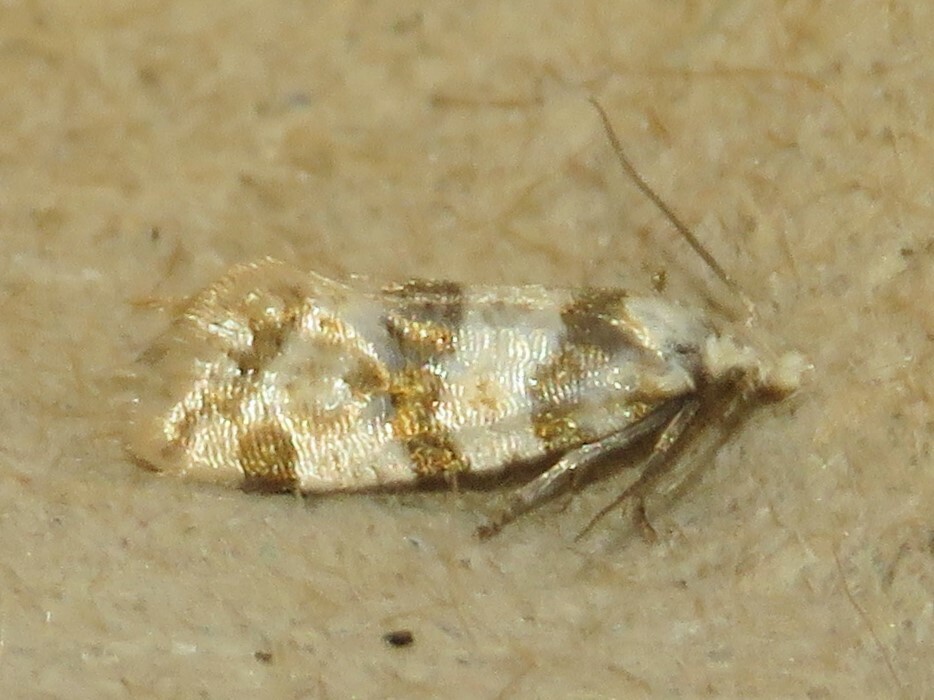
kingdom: Animalia
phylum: Arthropoda
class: Insecta
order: Lepidoptera
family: Tortricidae
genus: Aethes
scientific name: Aethes argentilimitana
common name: Silver-bordered aethes
